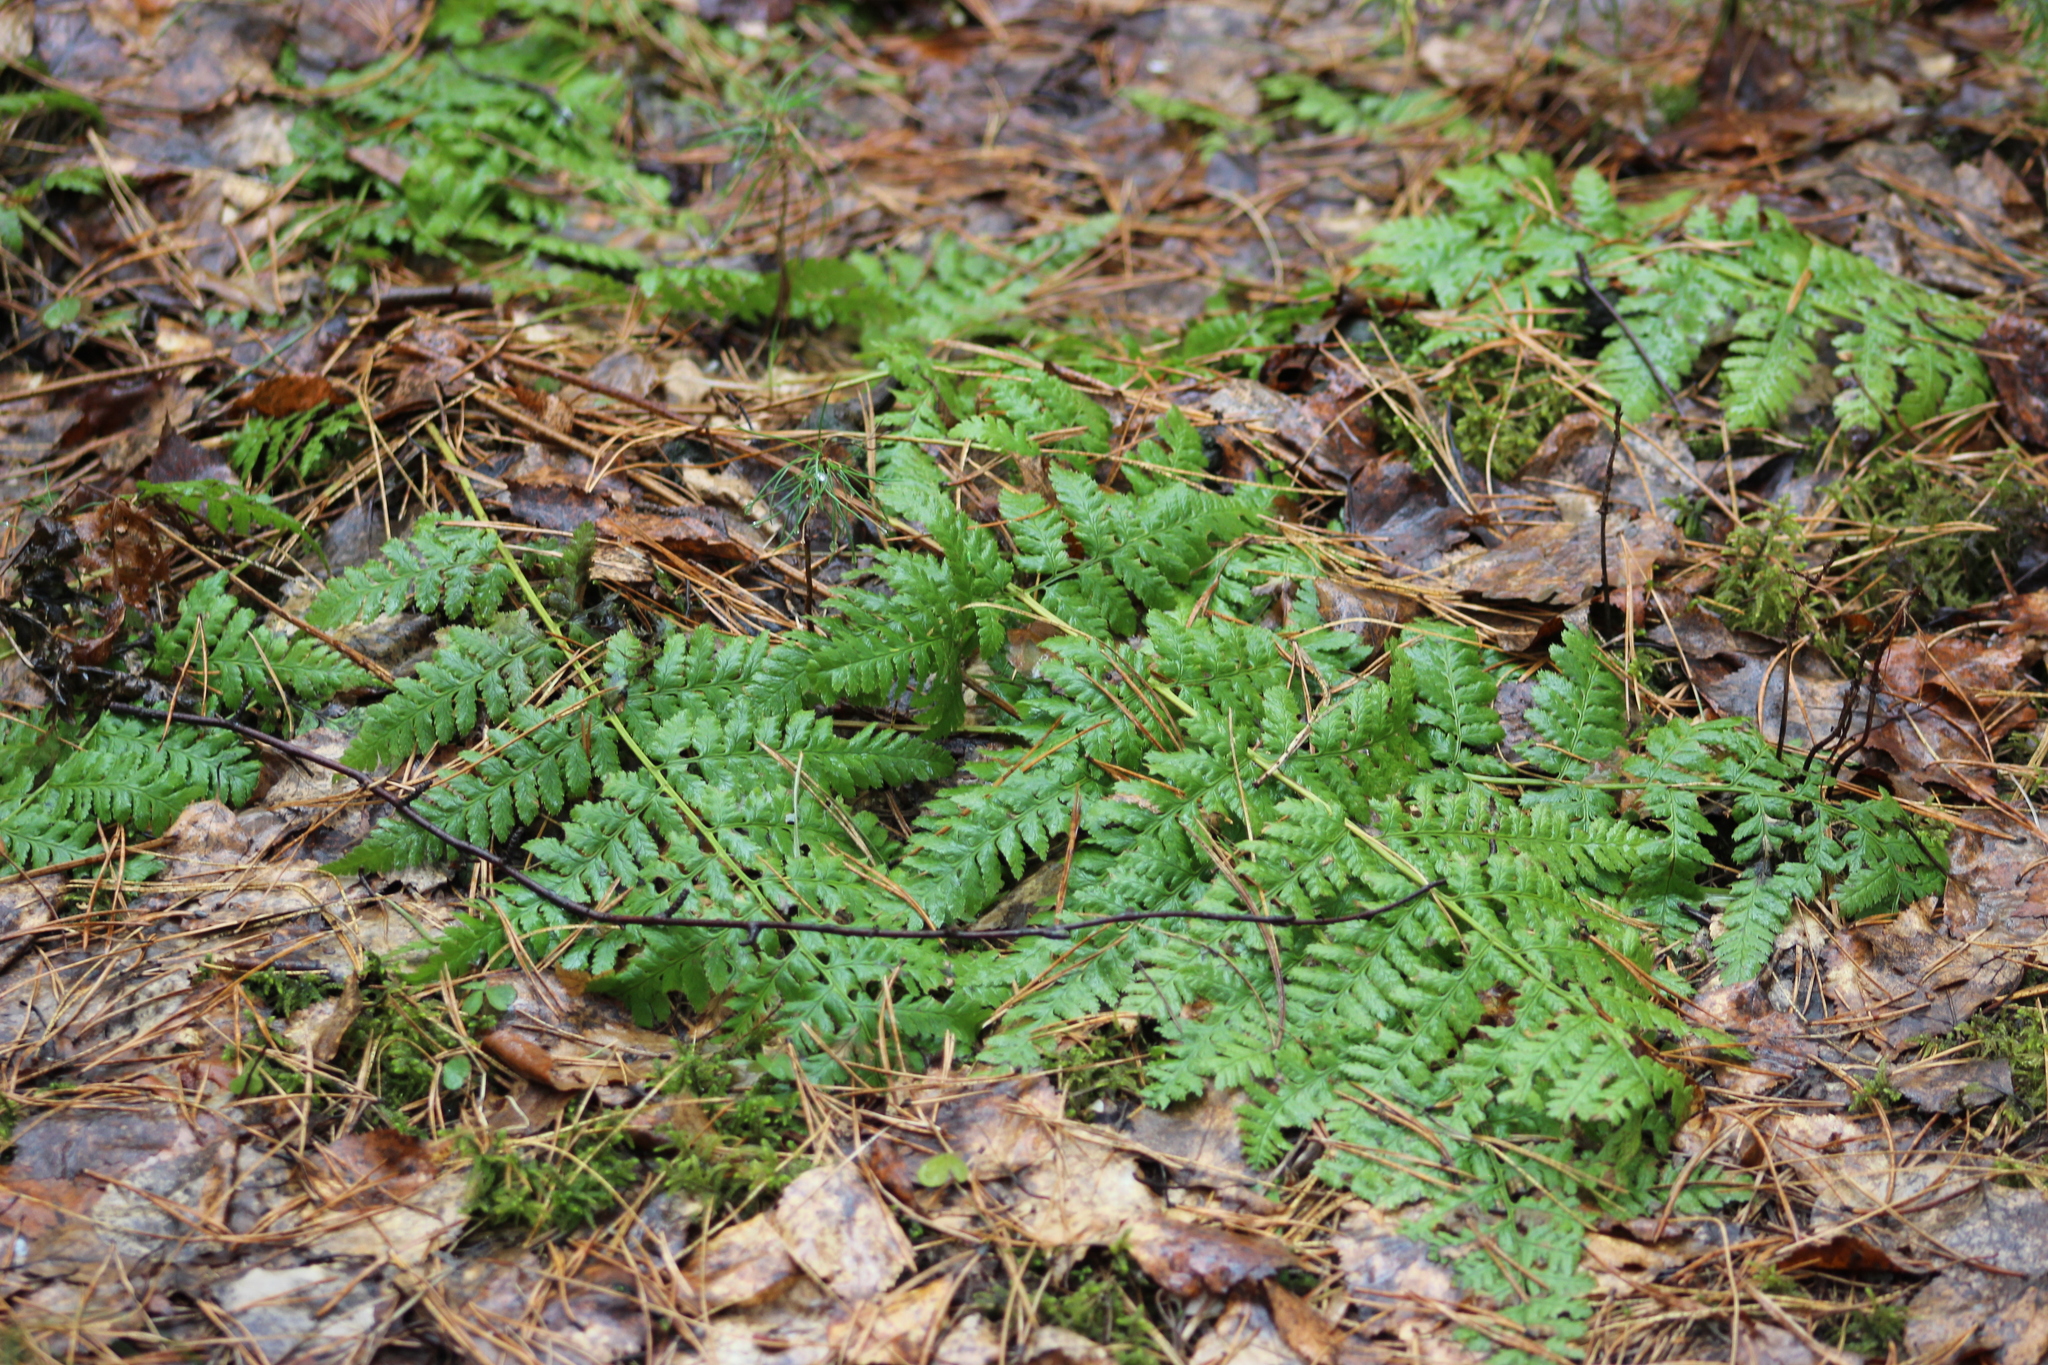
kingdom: Plantae
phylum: Tracheophyta
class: Polypodiopsida
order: Polypodiales
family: Dryopteridaceae
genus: Dryopteris
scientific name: Dryopteris carthusiana
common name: Narrow buckler-fern
